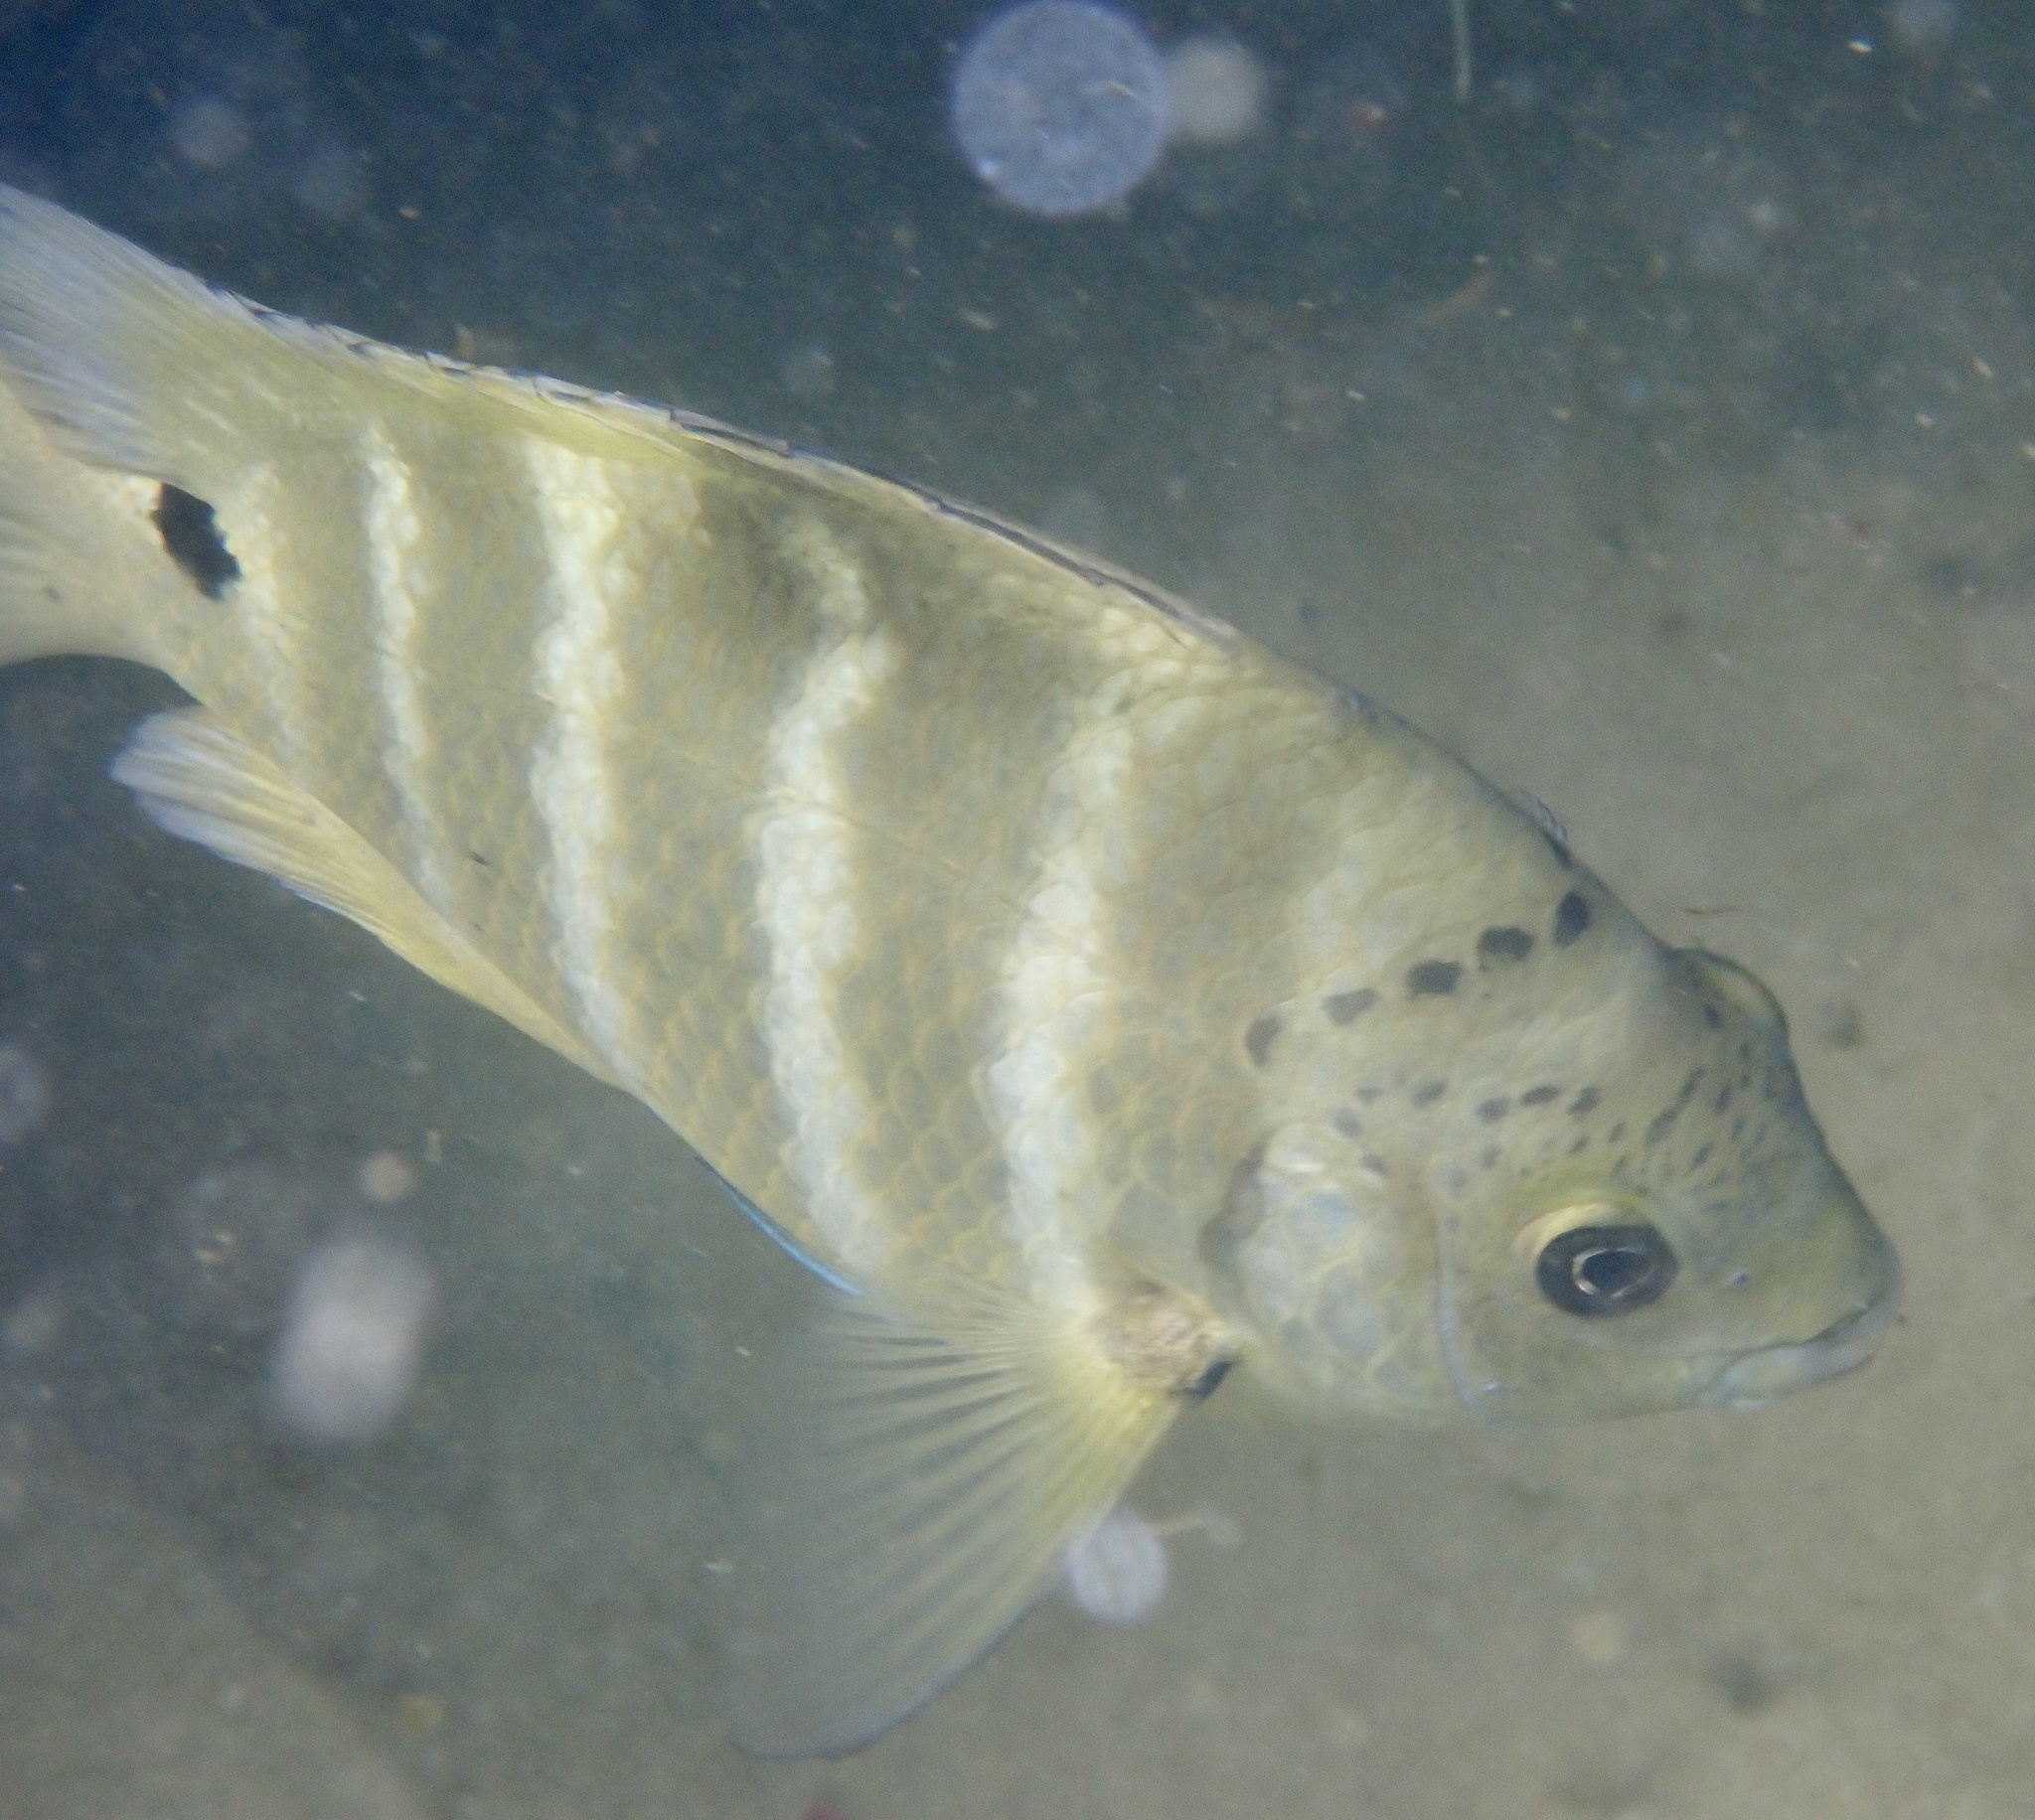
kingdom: Animalia
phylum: Chordata
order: Perciformes
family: Pomacentridae
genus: Abudefduf
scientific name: Abudefduf sordidus
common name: Blackspot sergeant
